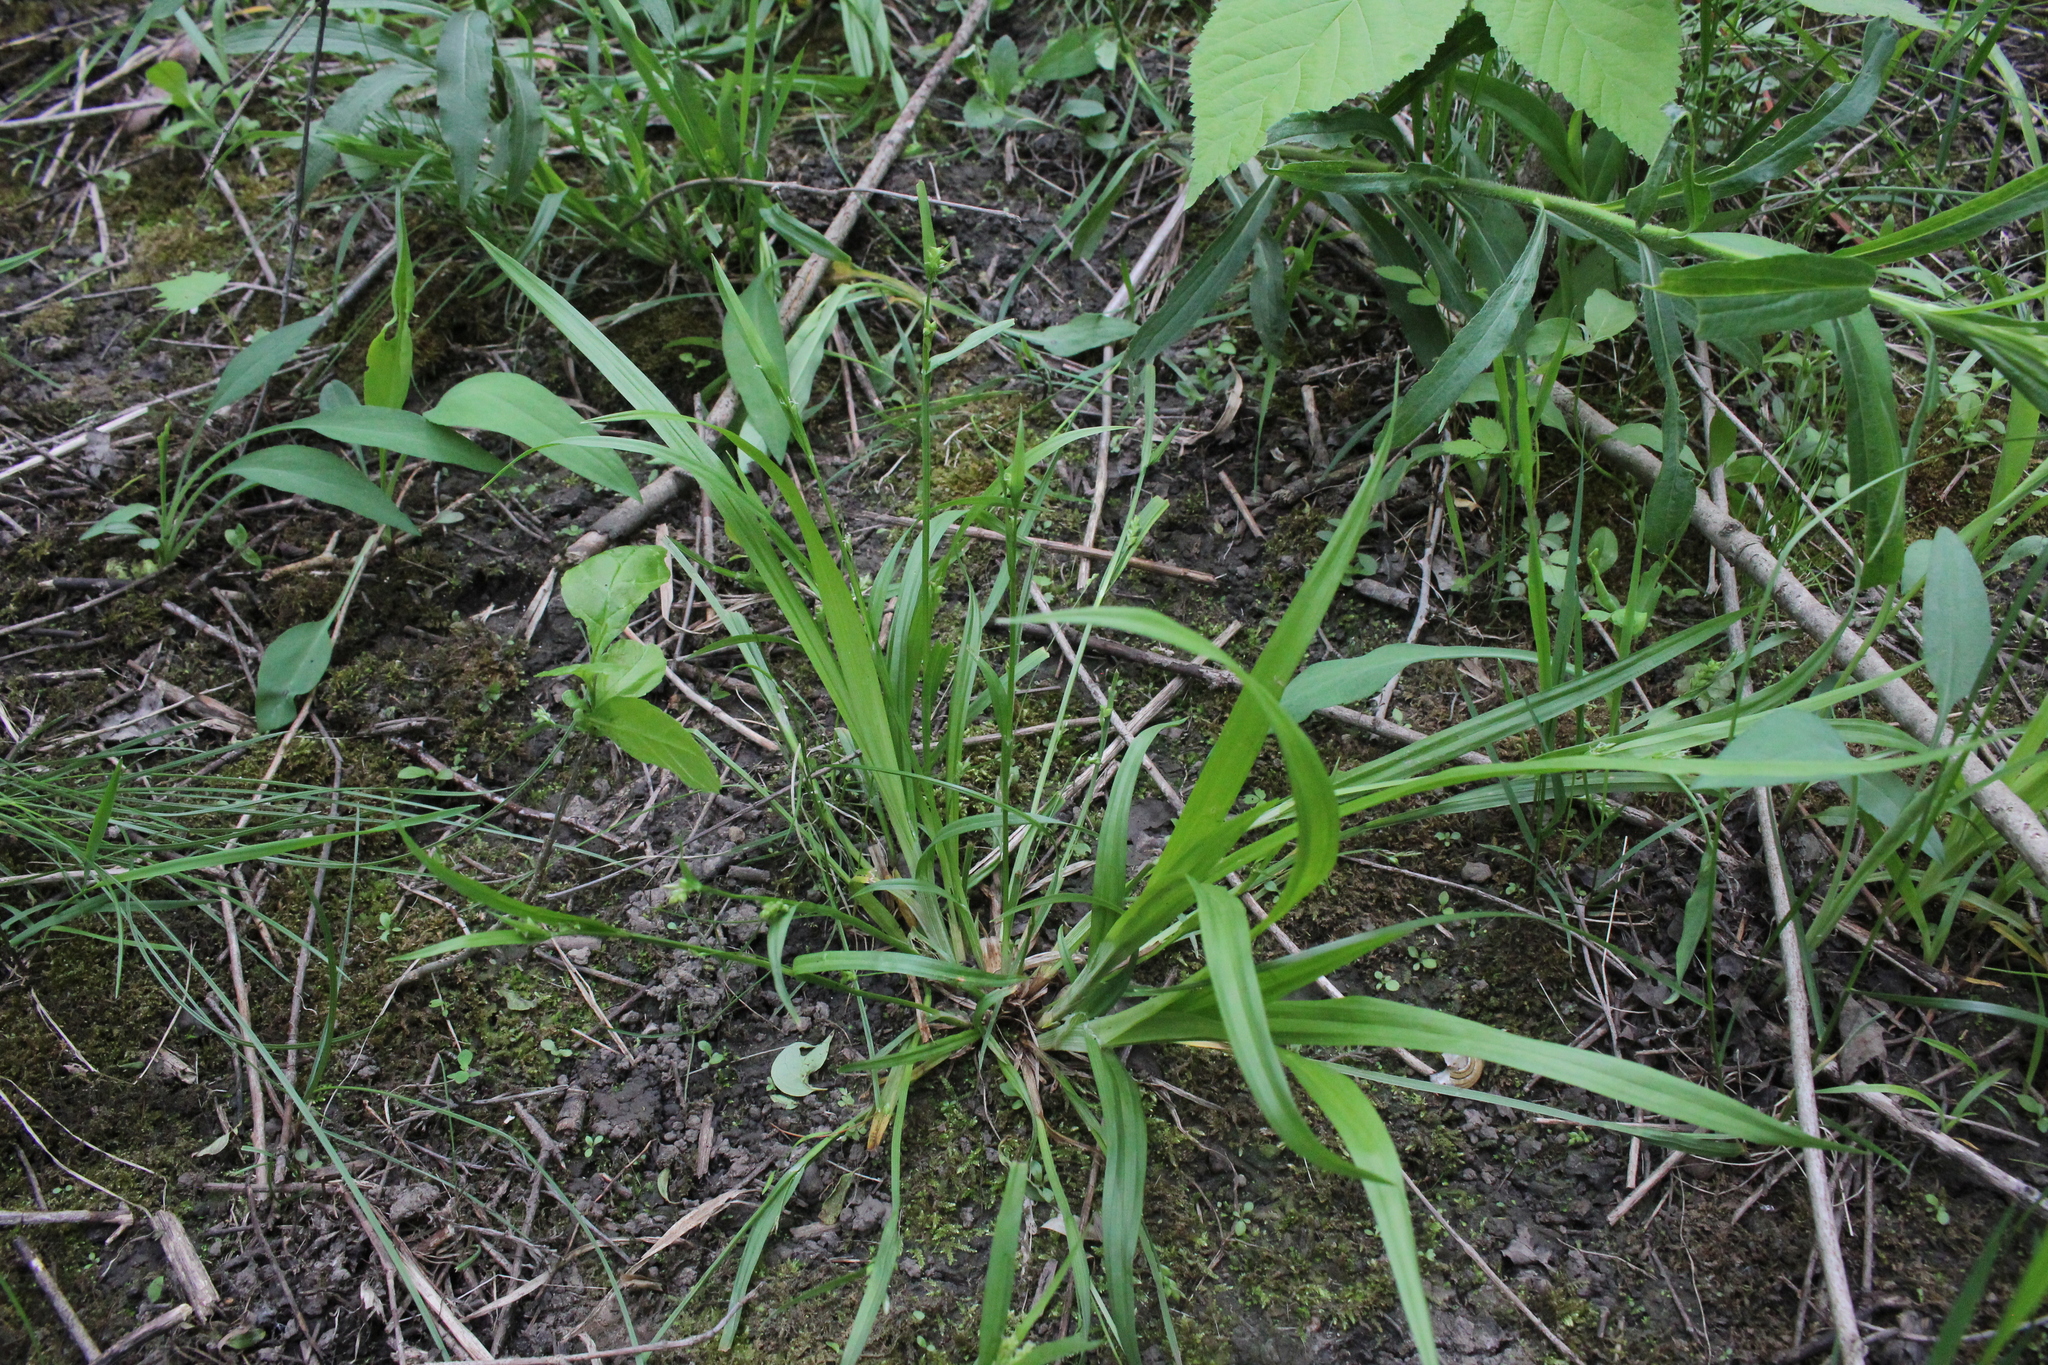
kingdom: Plantae
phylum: Tracheophyta
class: Liliopsida
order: Poales
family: Cyperaceae
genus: Carex
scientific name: Carex blanda
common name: Bland sedge
